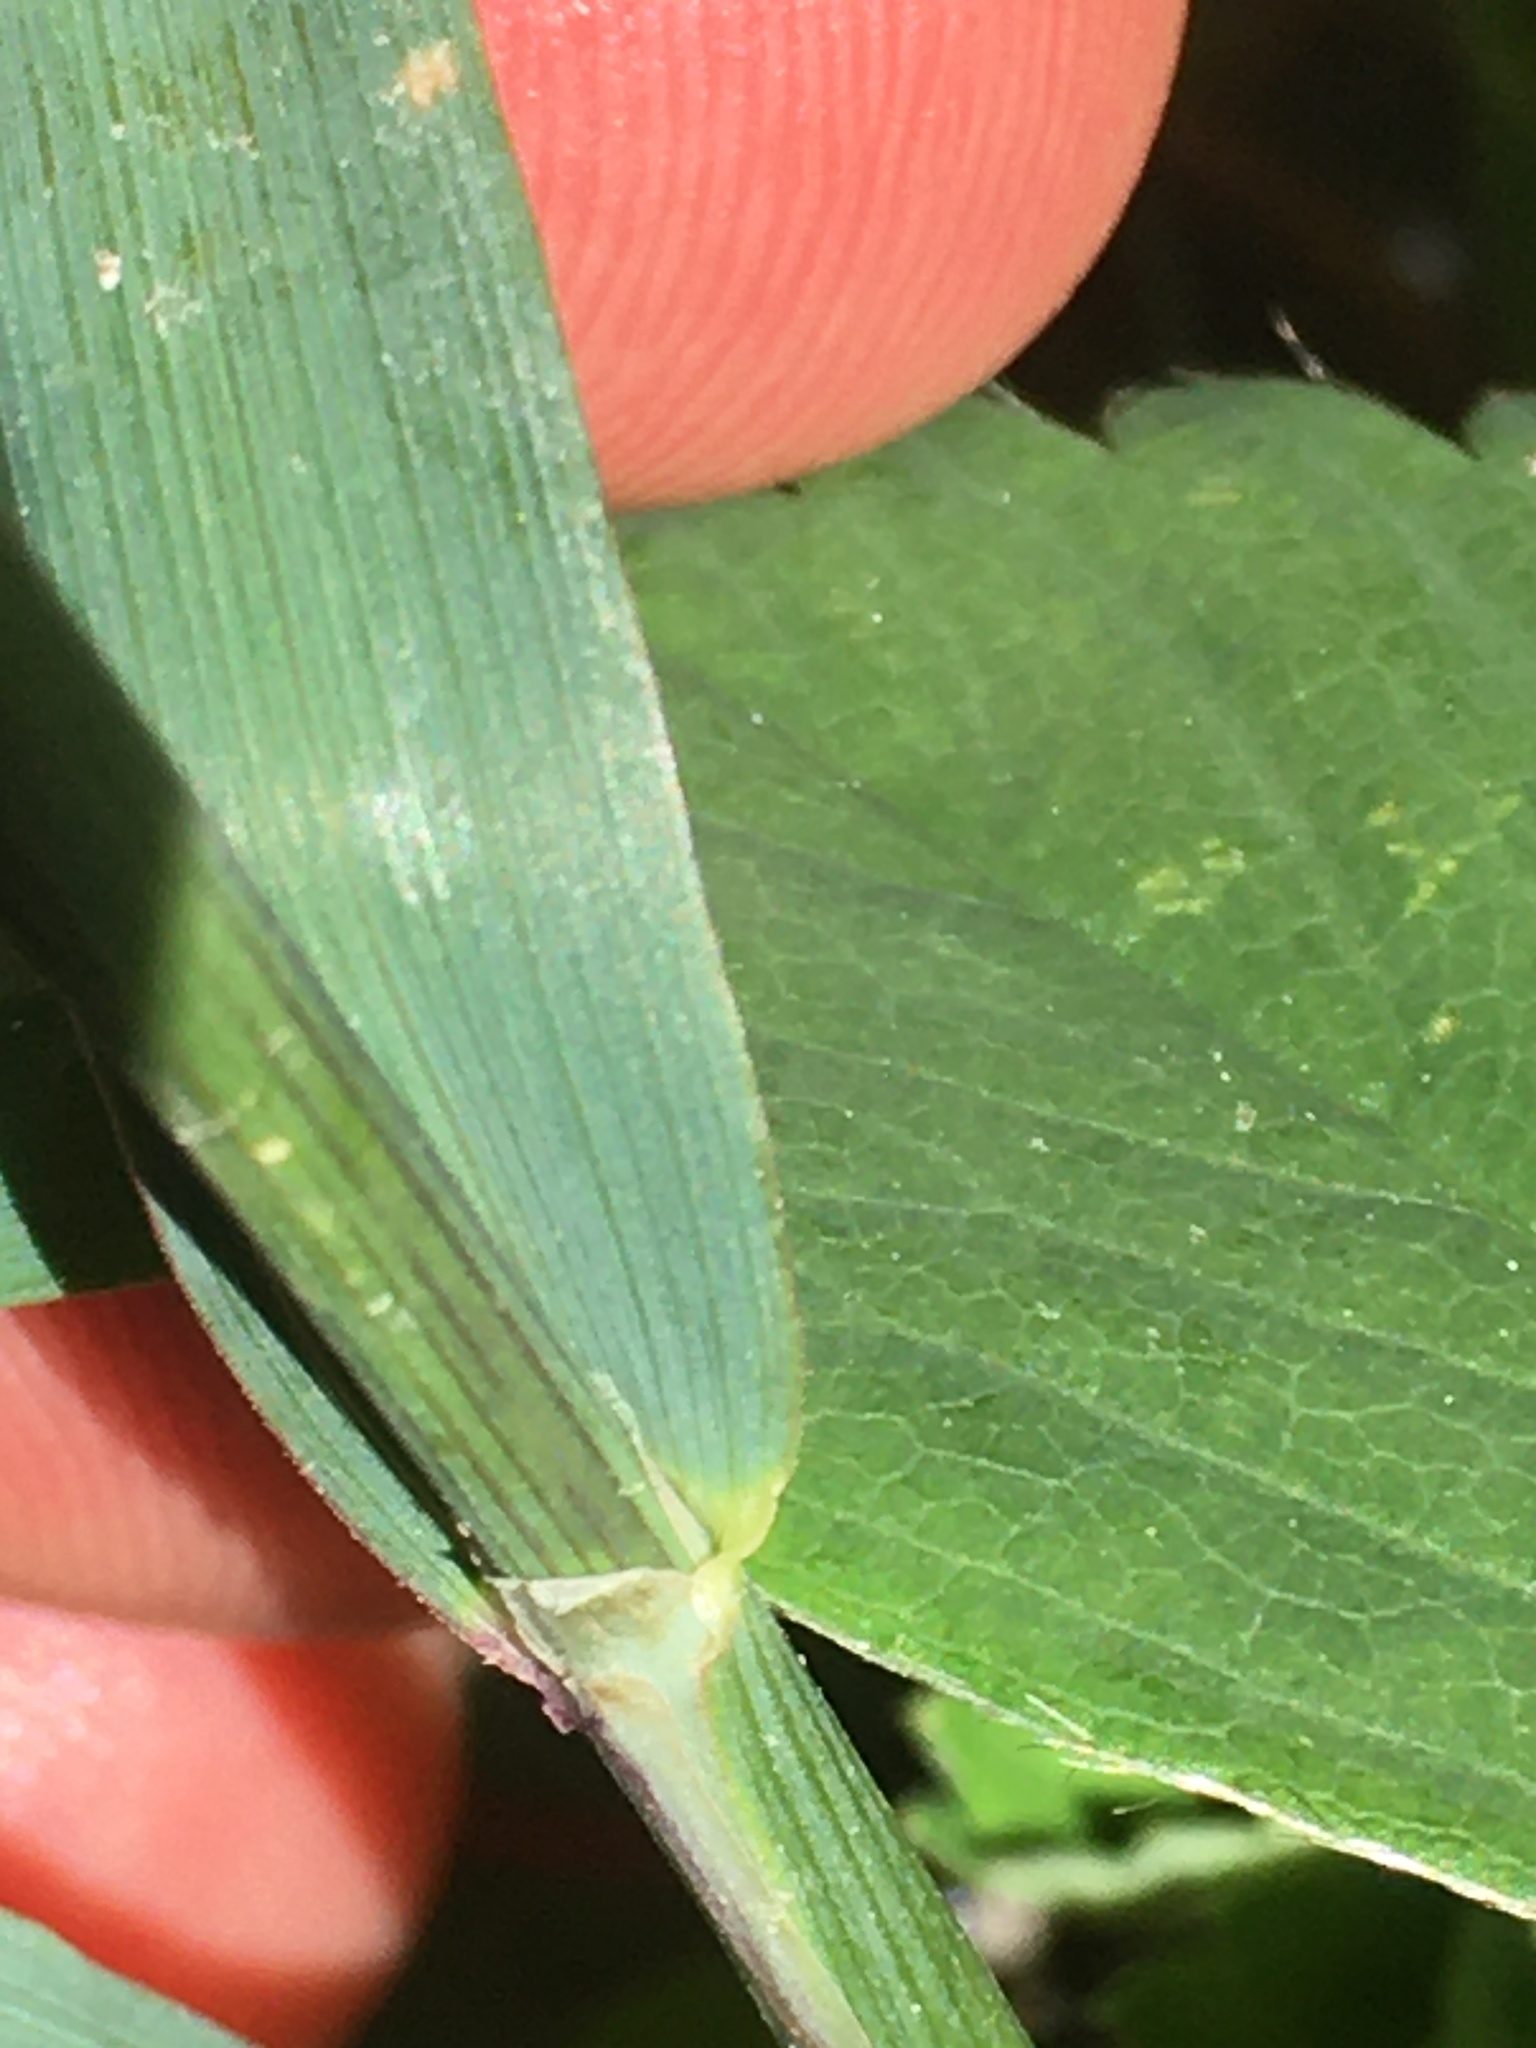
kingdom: Plantae
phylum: Tracheophyta
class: Liliopsida
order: Poales
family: Poaceae
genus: Phleum
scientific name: Phleum alpinum
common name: Alpine cat's-tail
